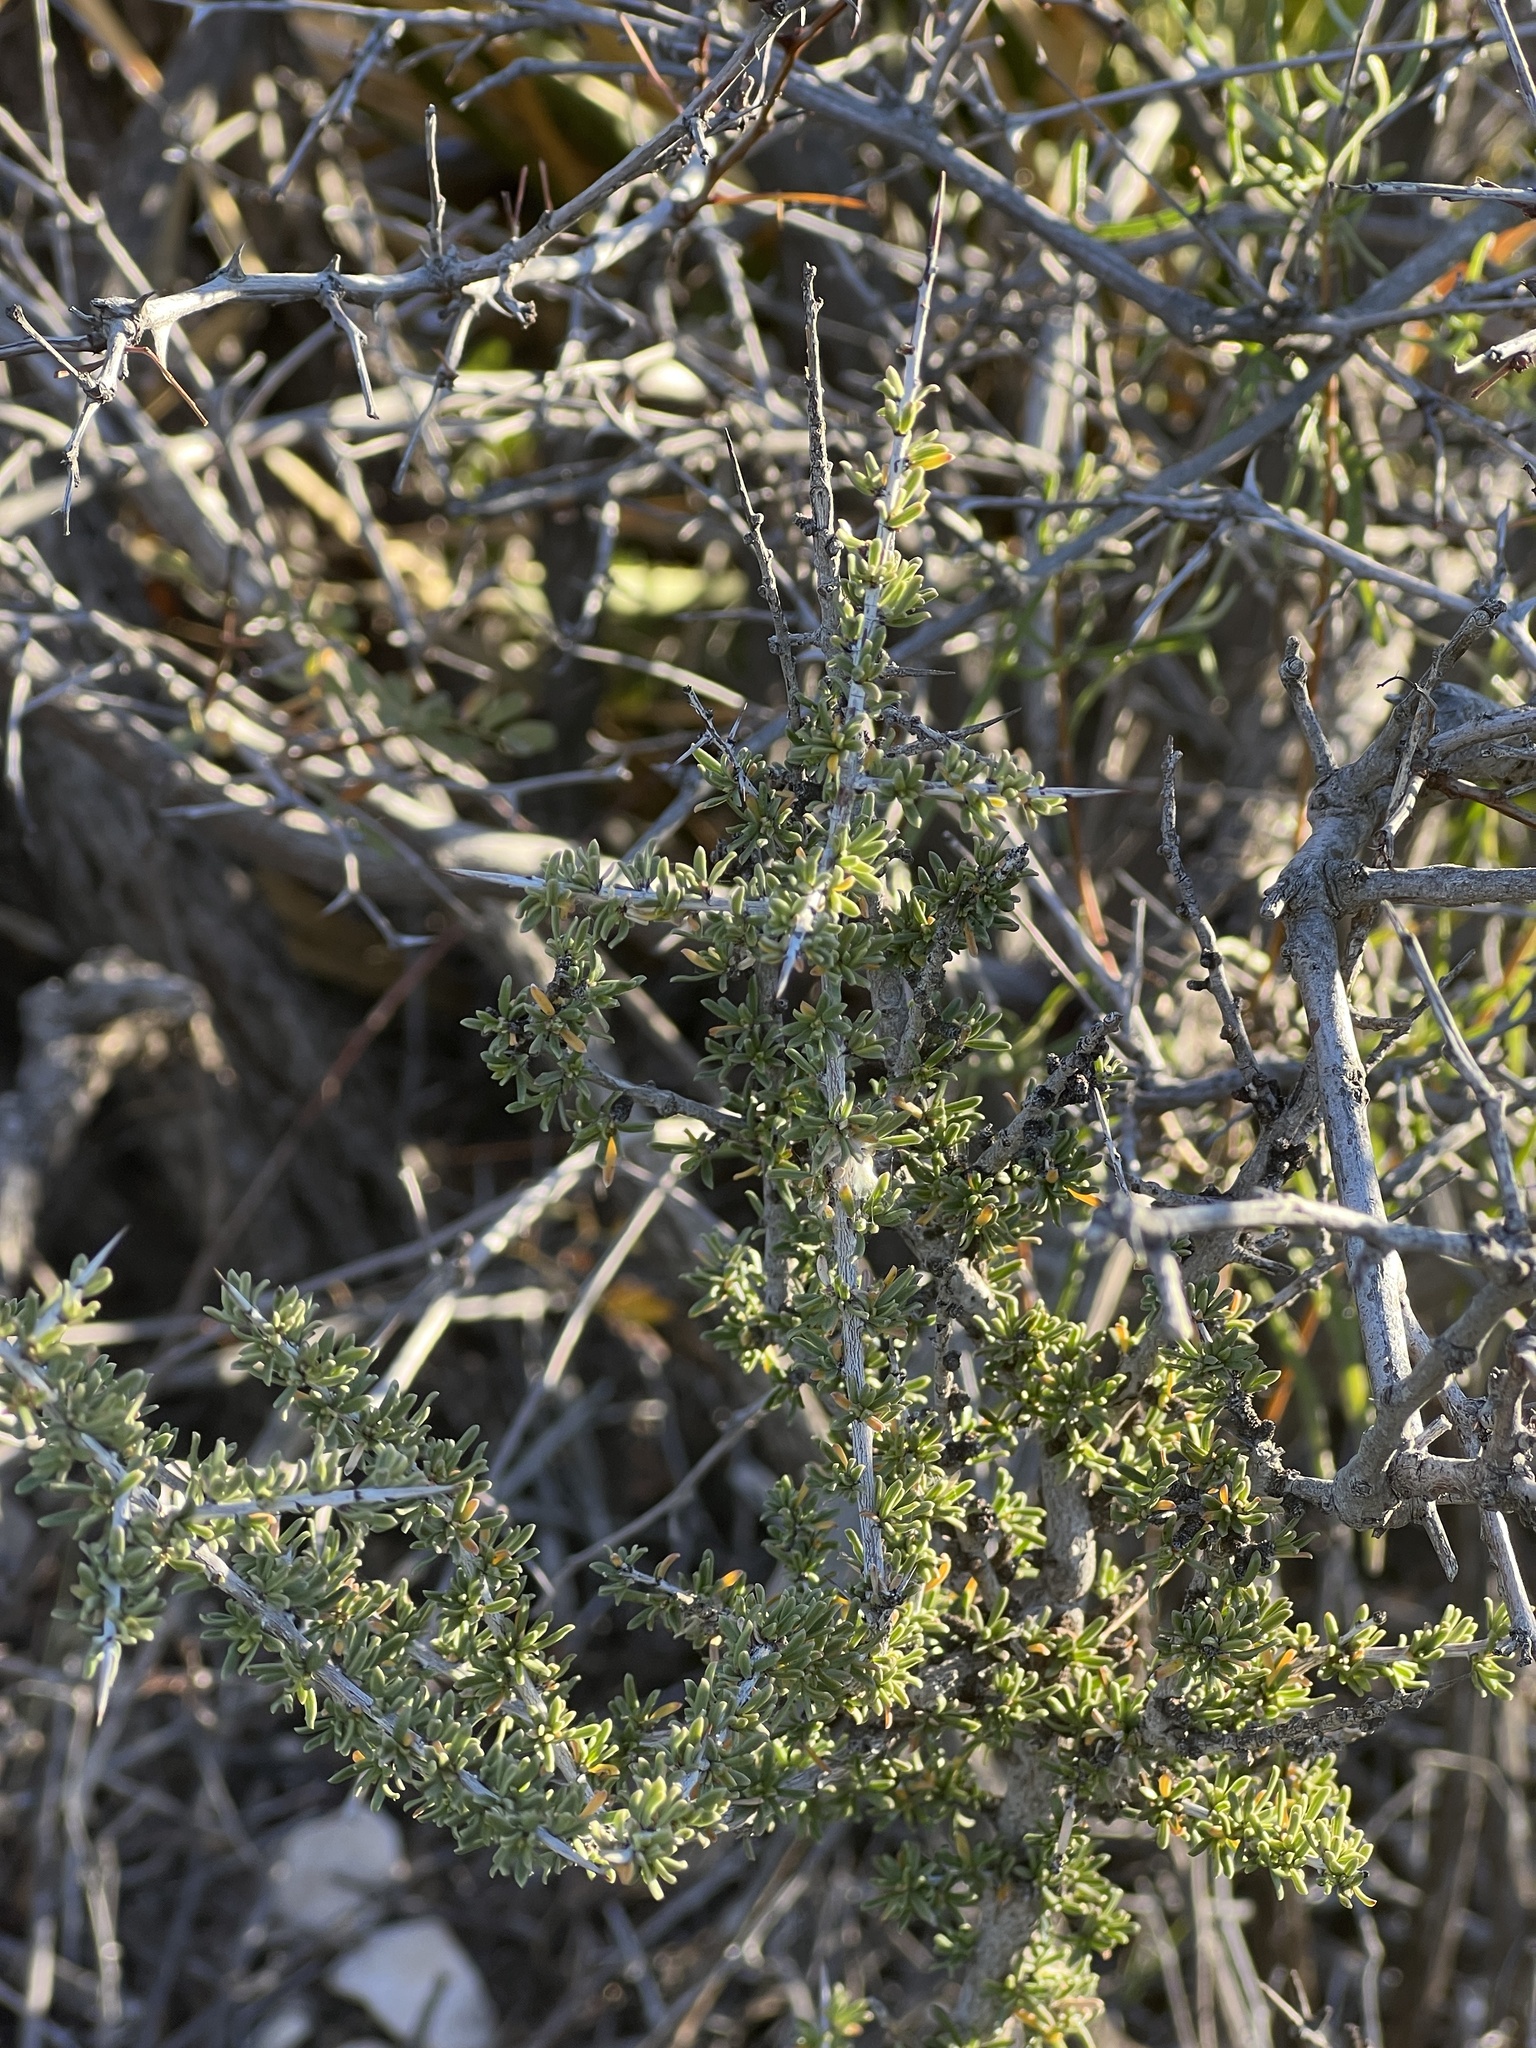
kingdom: Plantae
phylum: Tracheophyta
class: Magnoliopsida
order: Rosales
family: Rhamnaceae
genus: Condalia
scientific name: Condalia ericoides
